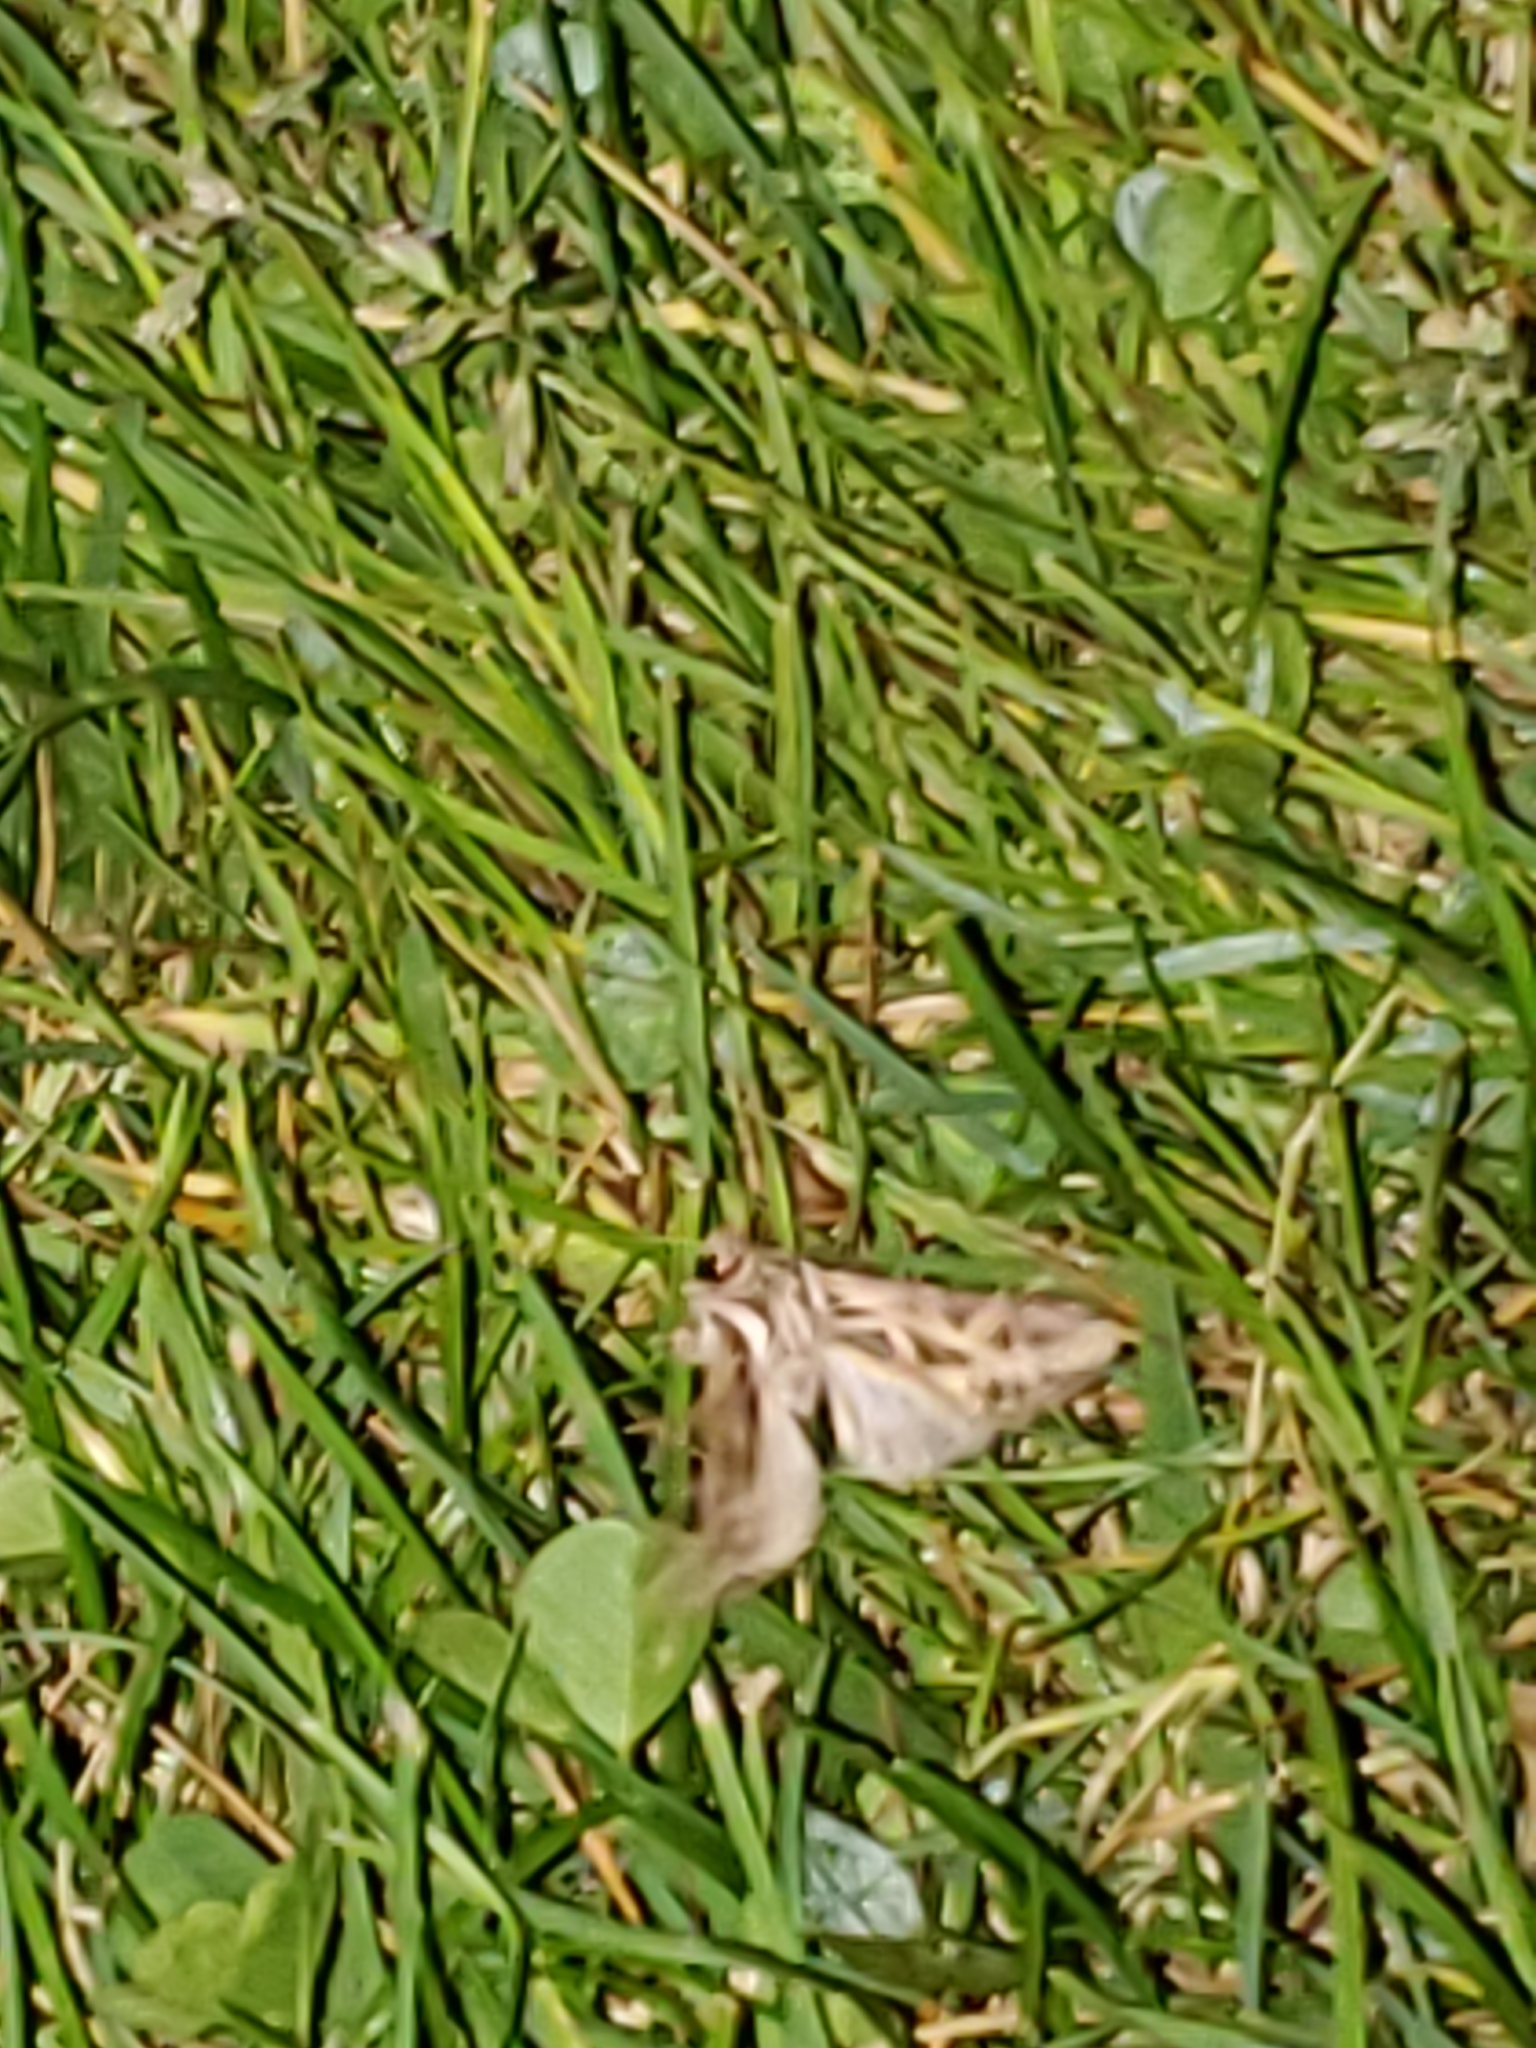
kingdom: Animalia
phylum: Arthropoda
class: Insecta
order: Lepidoptera
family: Noctuidae
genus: Dargida
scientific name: Dargida procinctus
